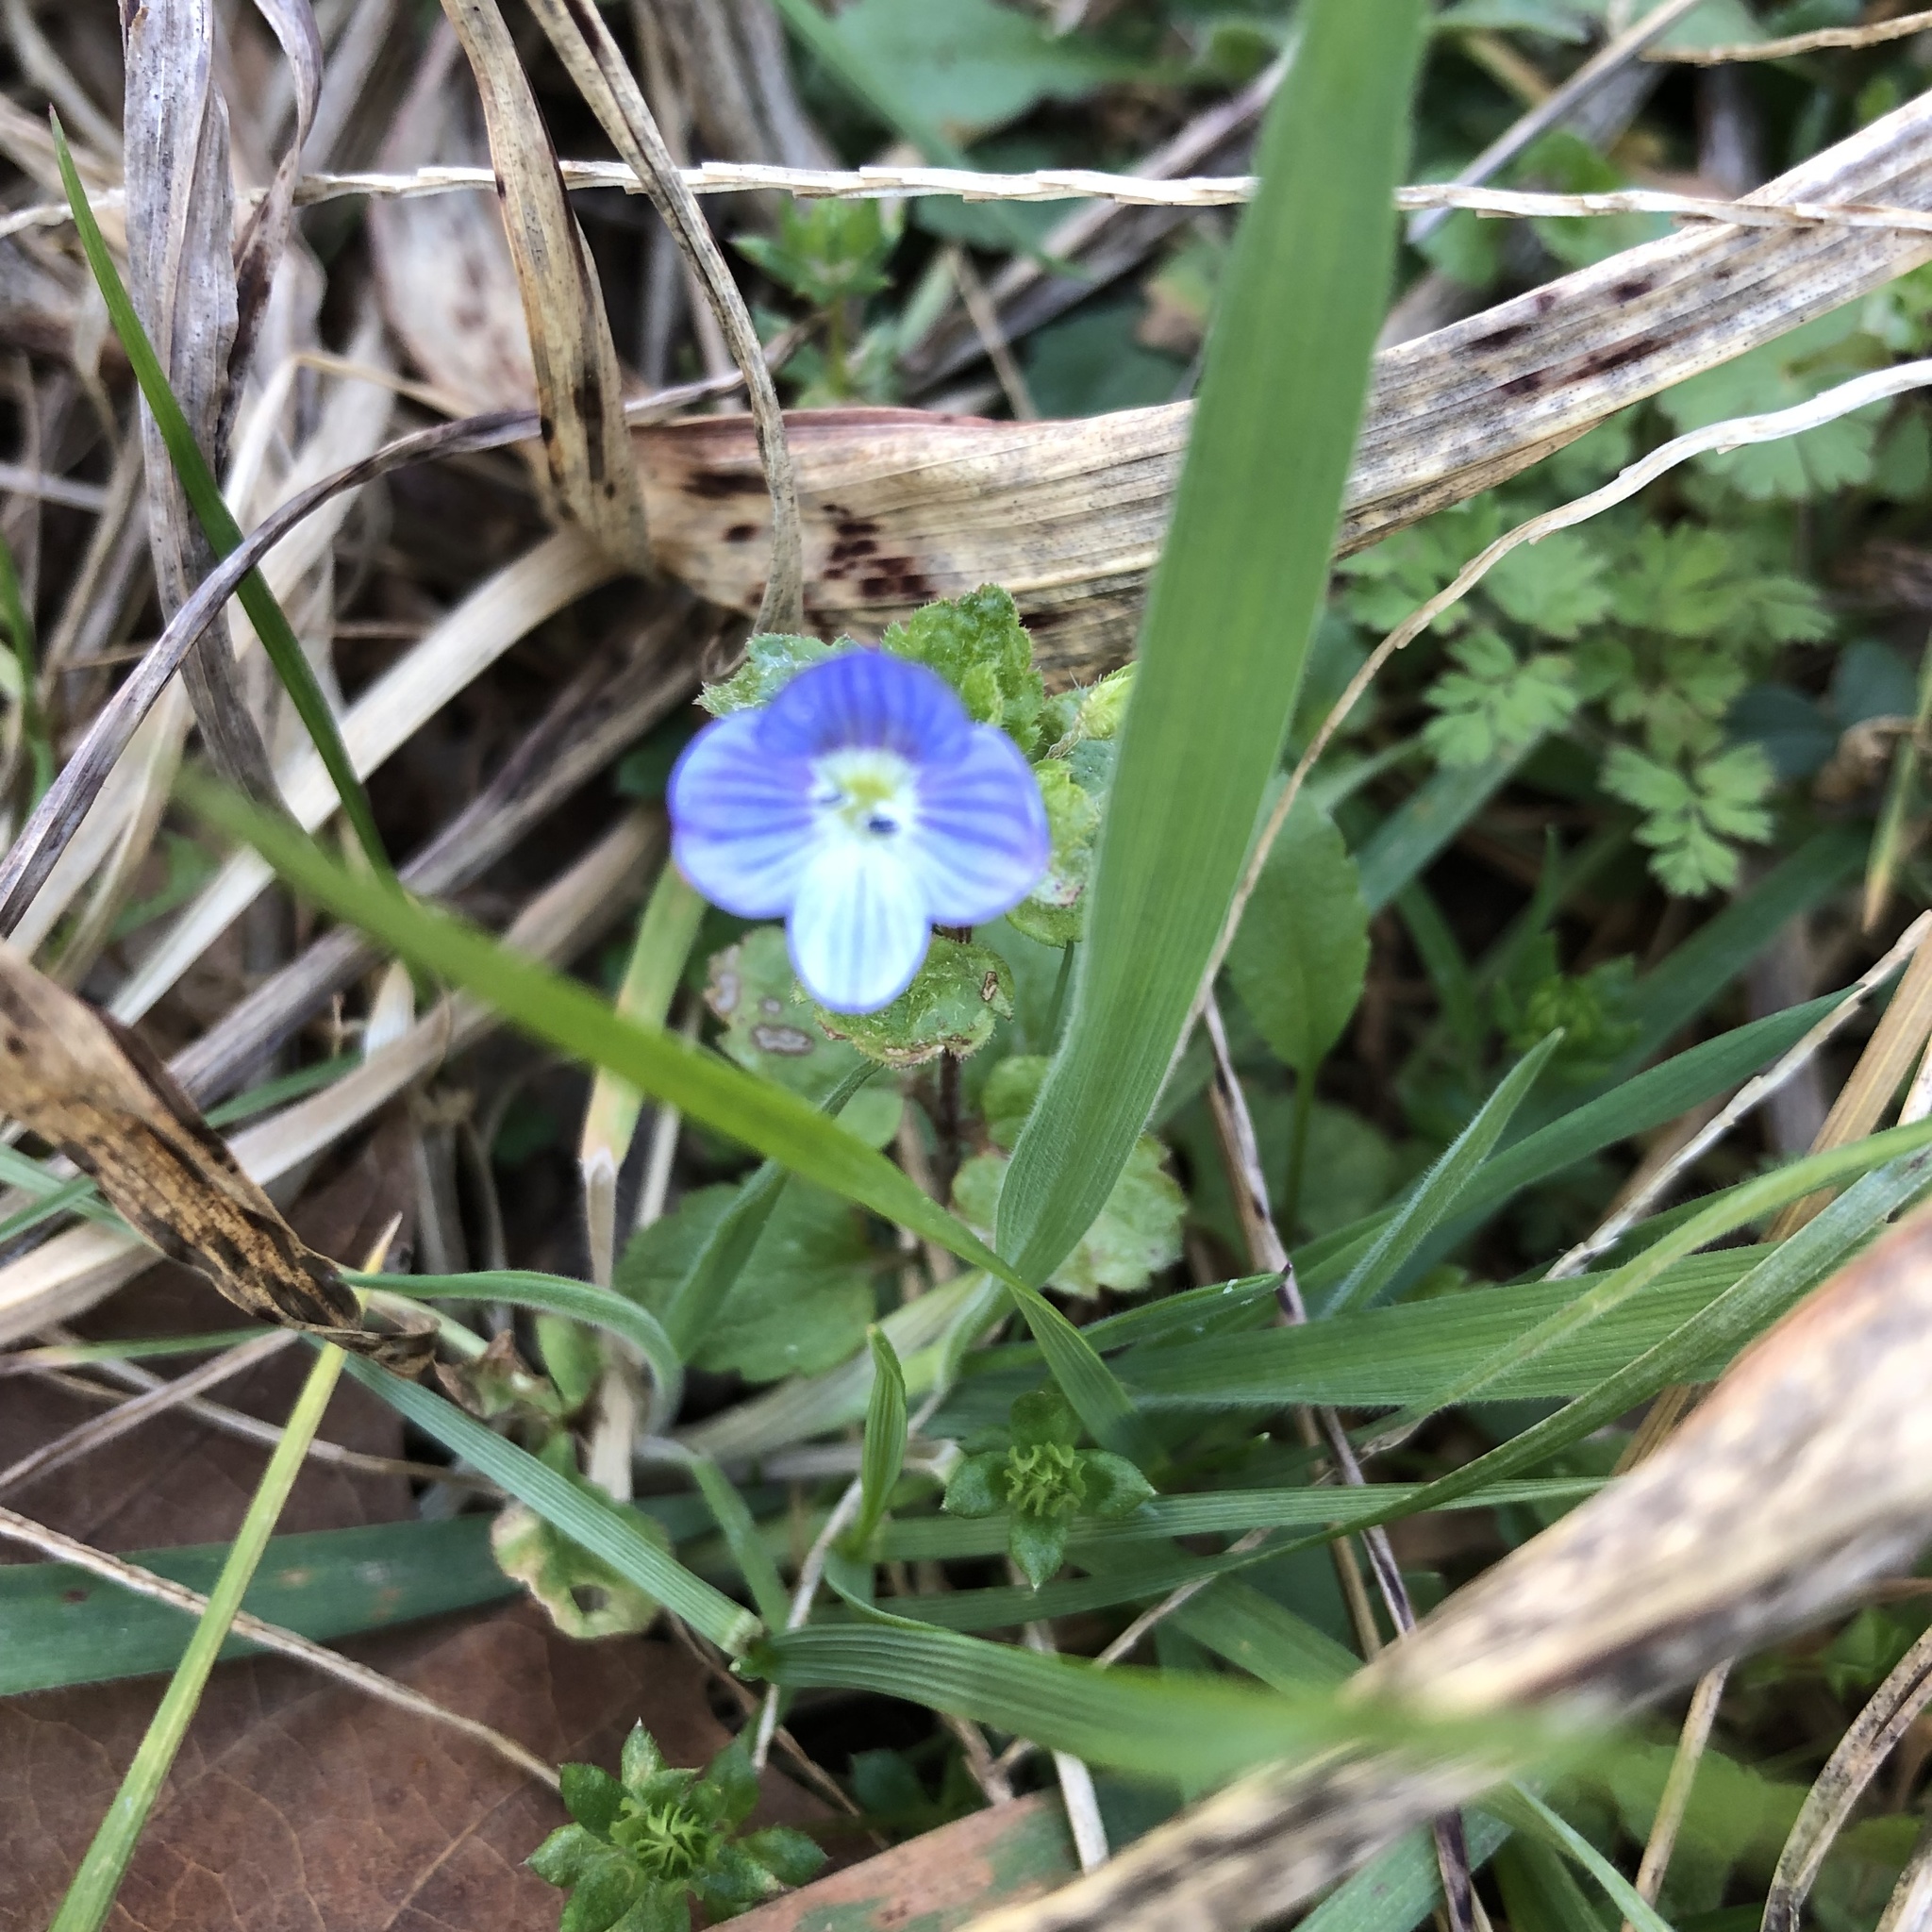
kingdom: Plantae
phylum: Tracheophyta
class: Magnoliopsida
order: Lamiales
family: Plantaginaceae
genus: Veronica
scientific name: Veronica persica
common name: Common field-speedwell
